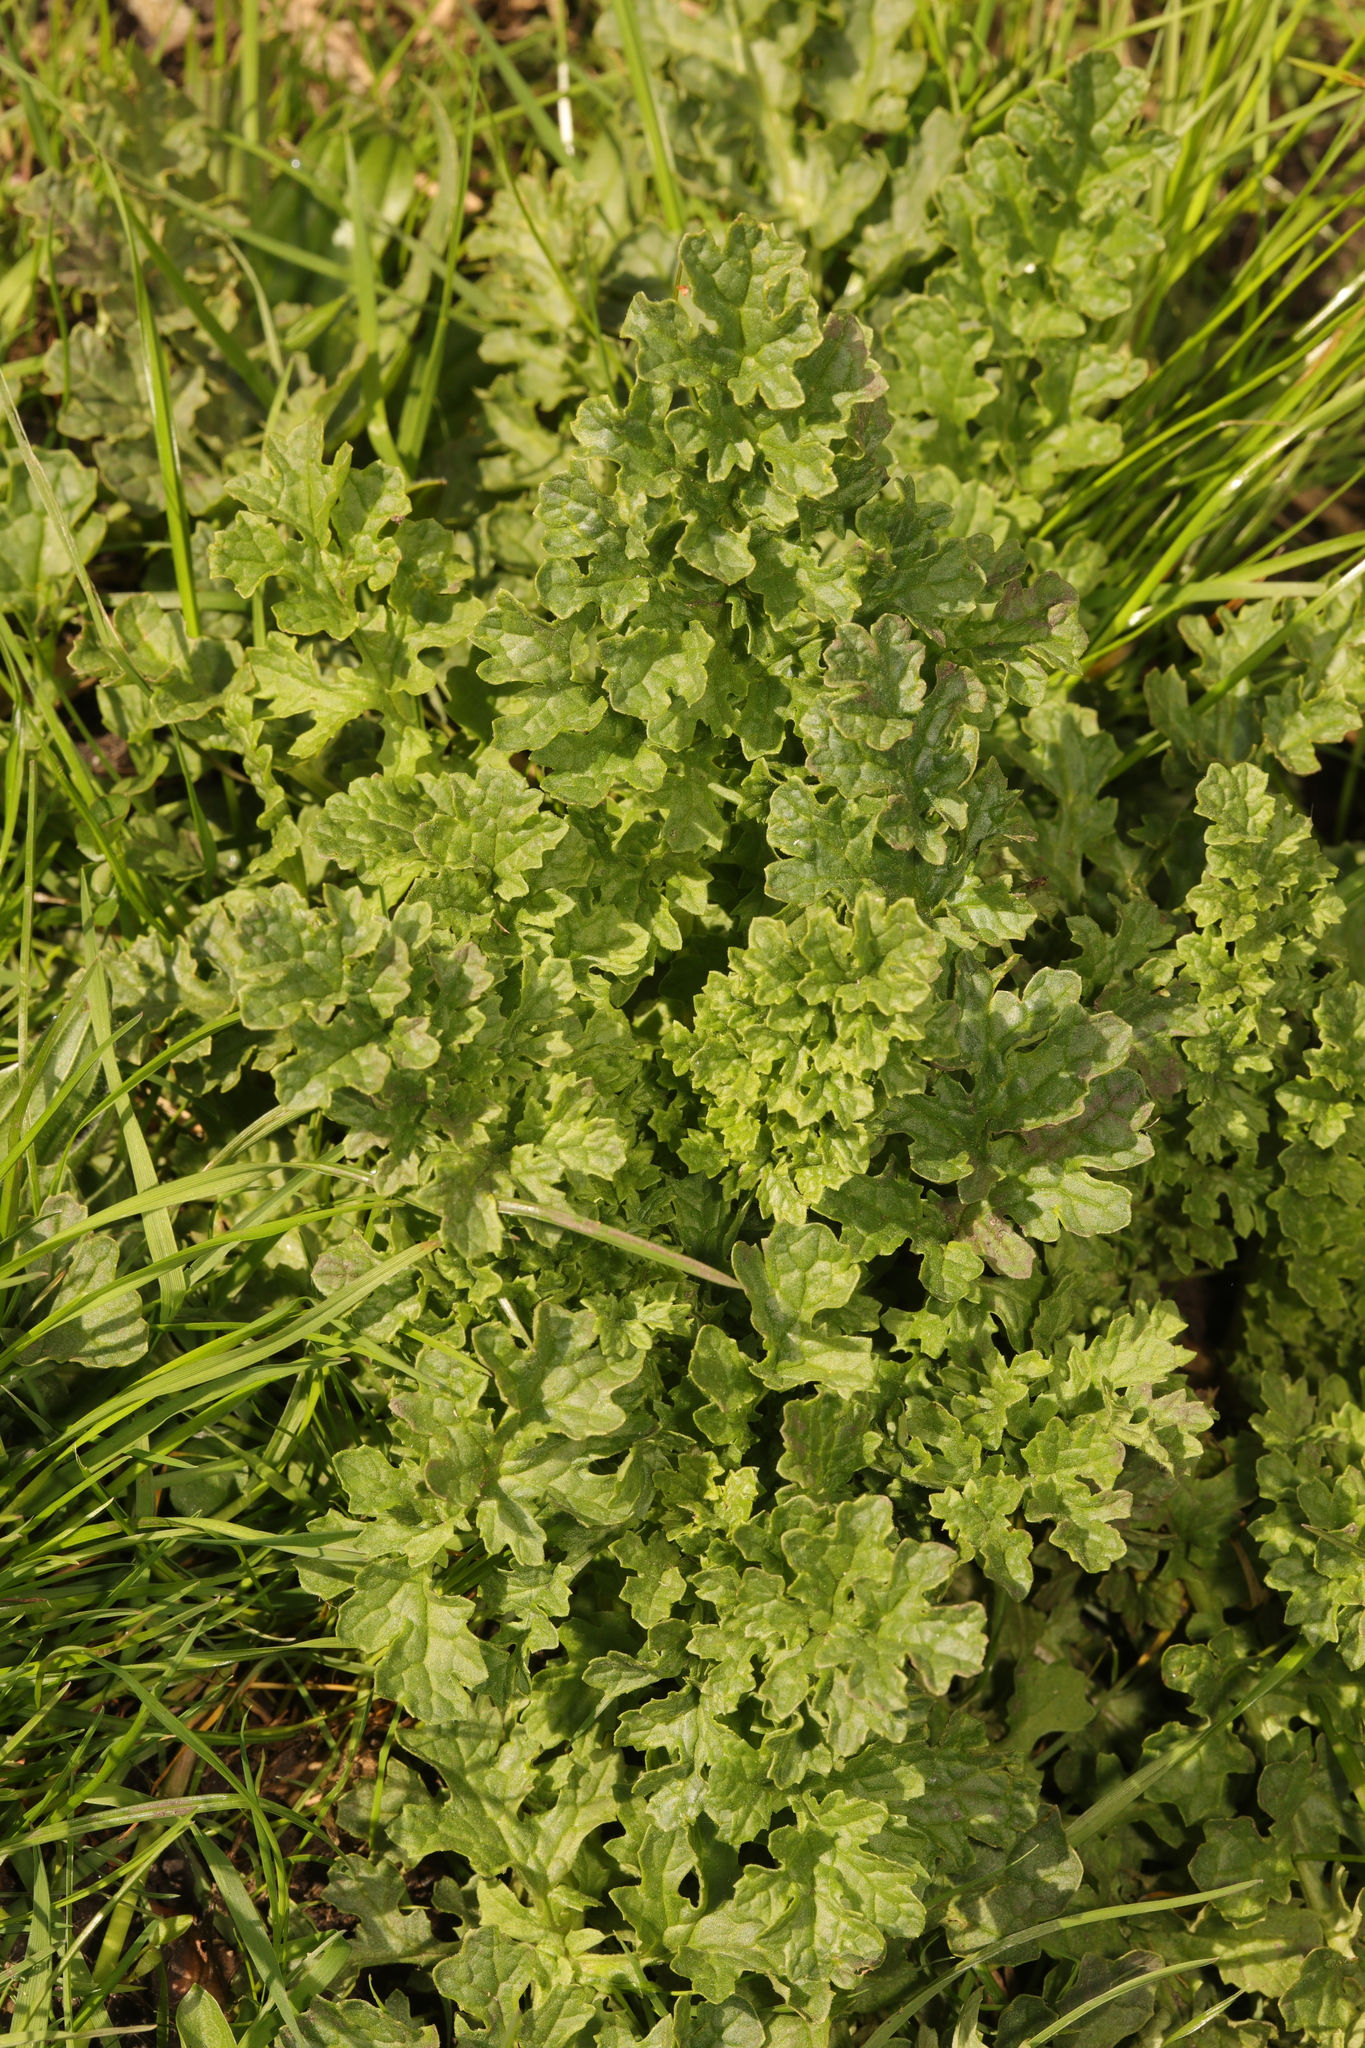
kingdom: Plantae
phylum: Tracheophyta
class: Magnoliopsida
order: Asterales
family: Asteraceae
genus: Jacobaea
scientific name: Jacobaea vulgaris
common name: Stinking willie
